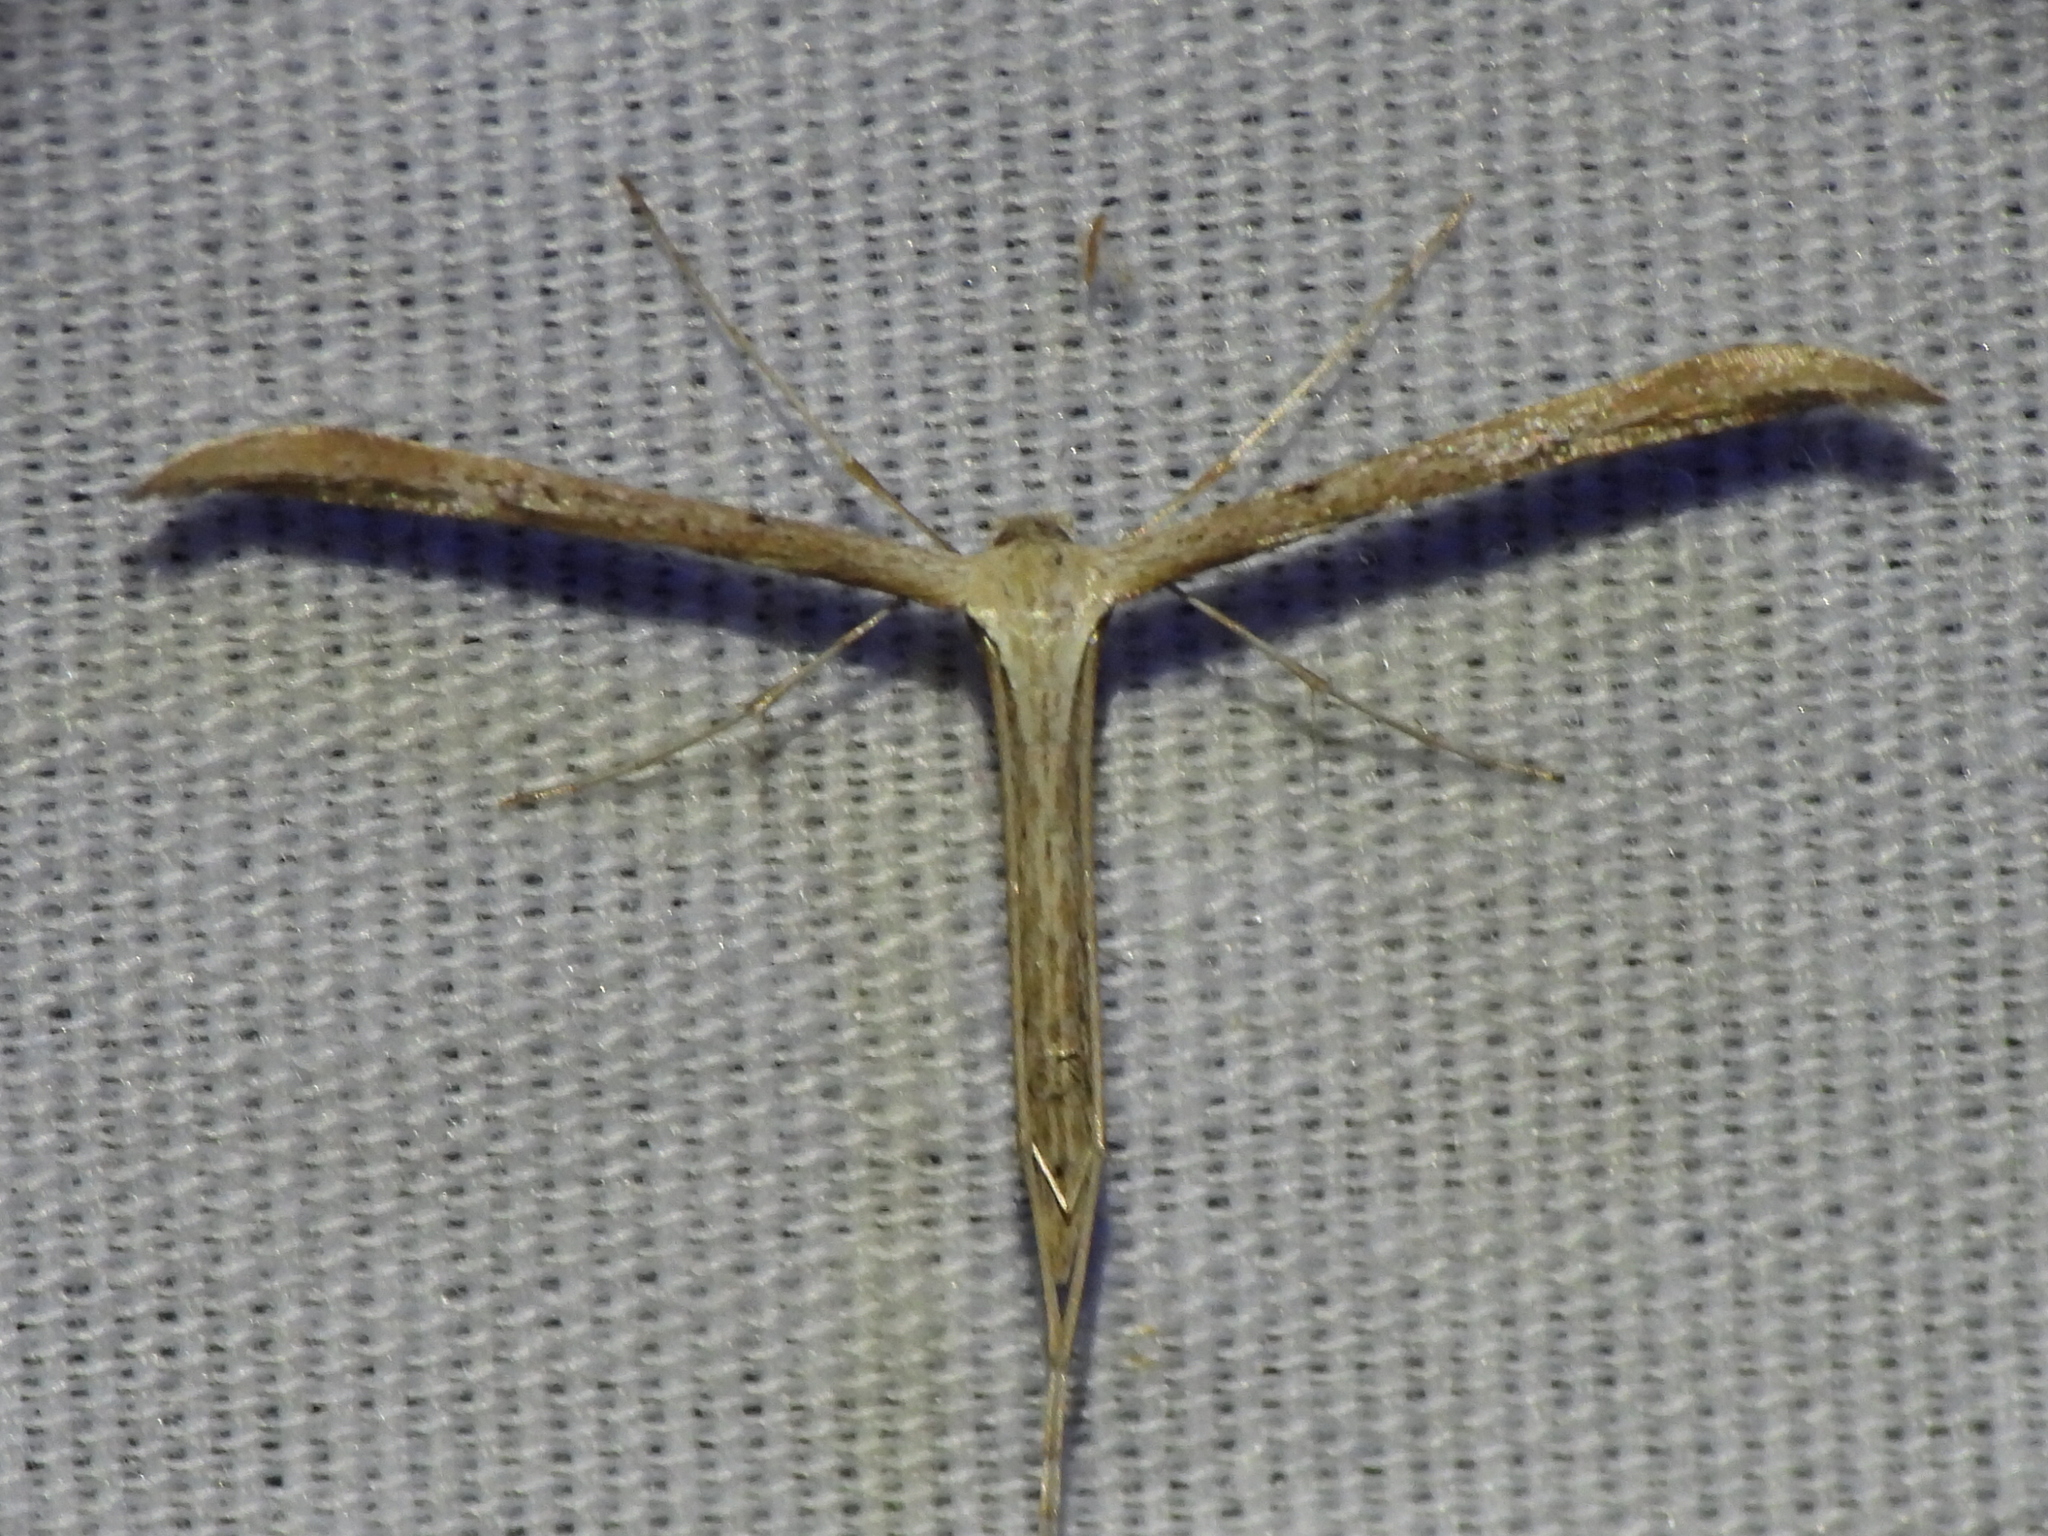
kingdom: Animalia
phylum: Arthropoda
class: Insecta
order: Lepidoptera
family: Pterophoridae
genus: Emmelina
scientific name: Emmelina monodactyla
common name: Common plume
